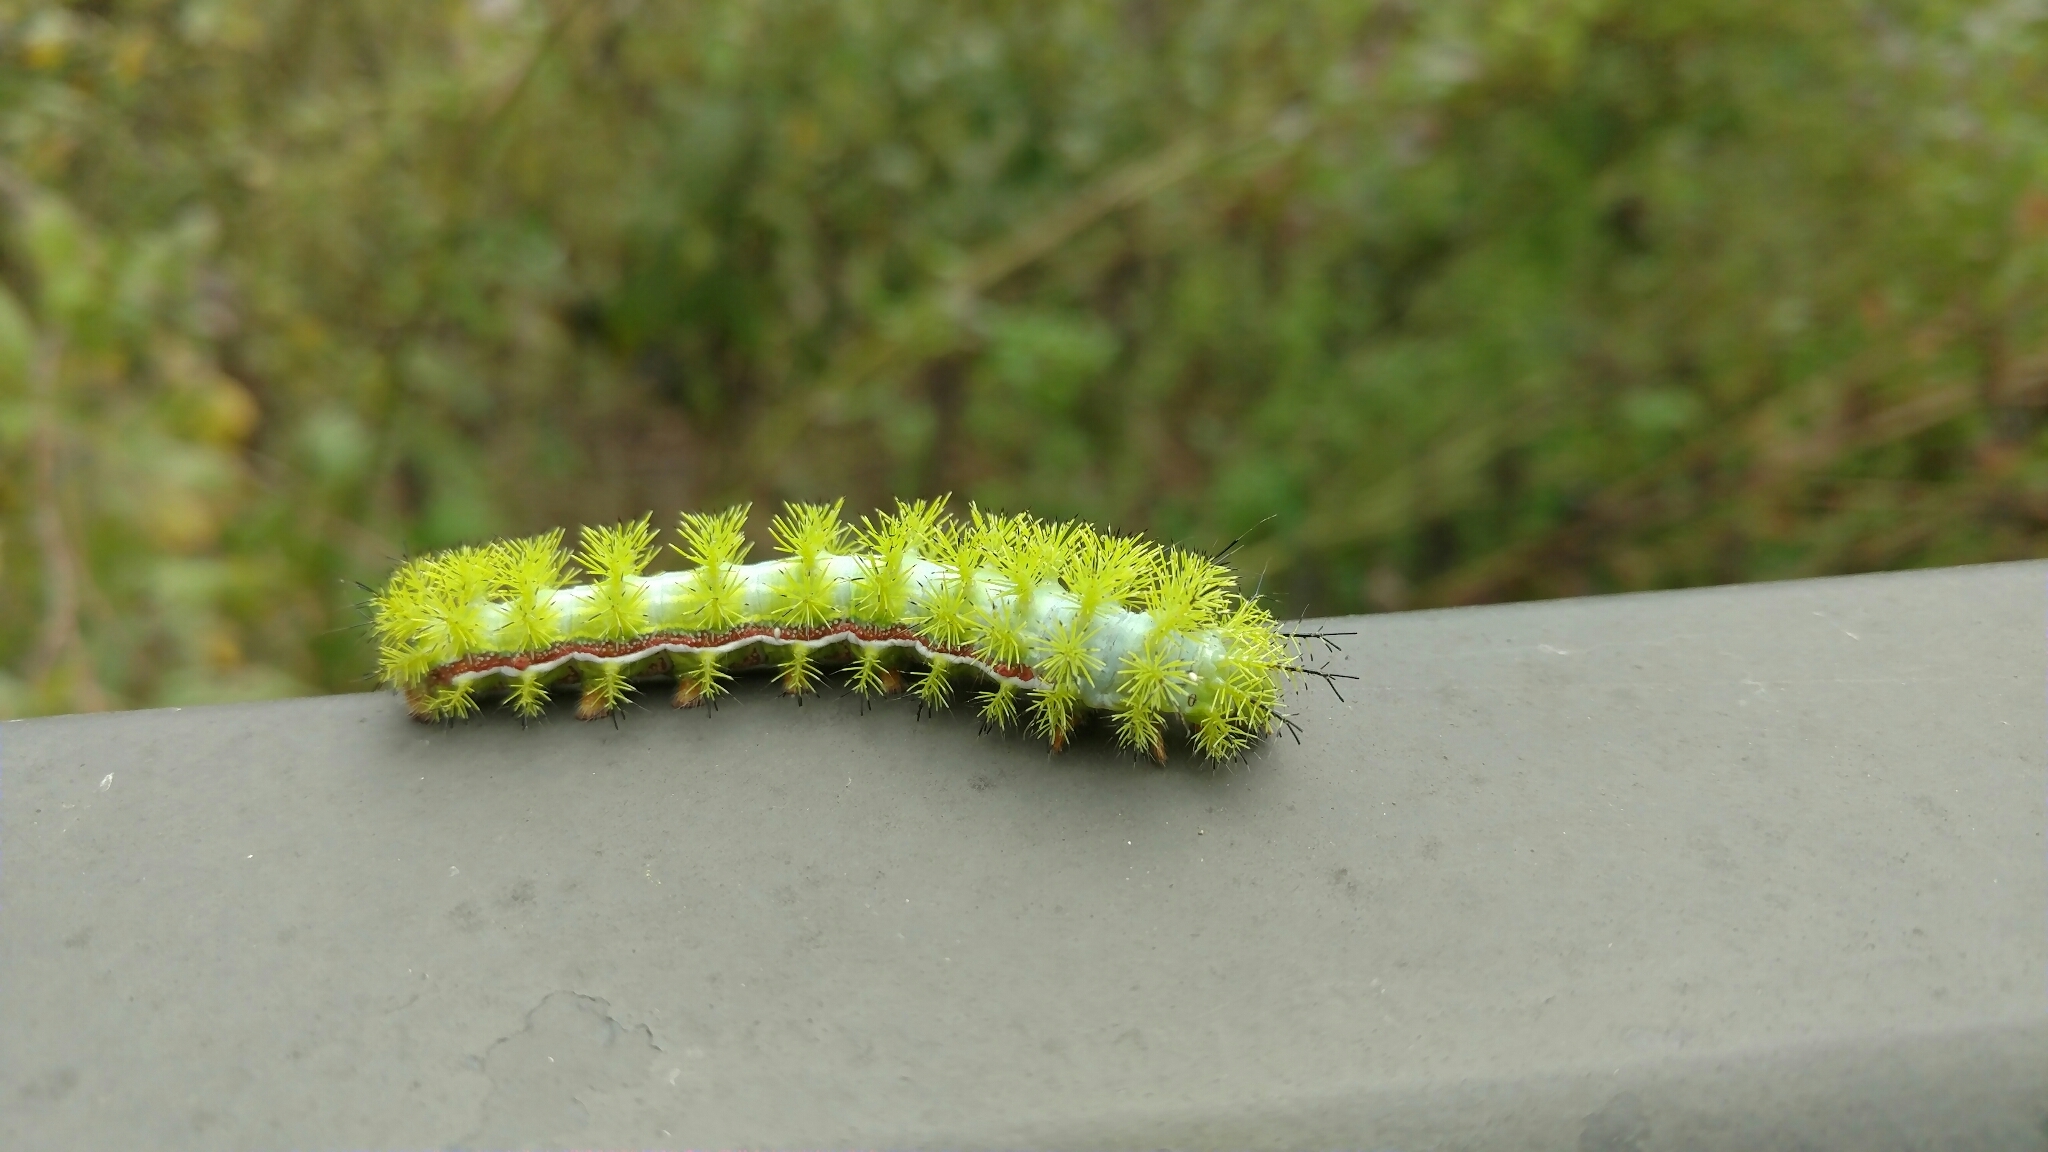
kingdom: Animalia
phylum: Arthropoda
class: Insecta
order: Lepidoptera
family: Saturniidae
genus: Automeris
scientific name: Automeris io
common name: Io moth
